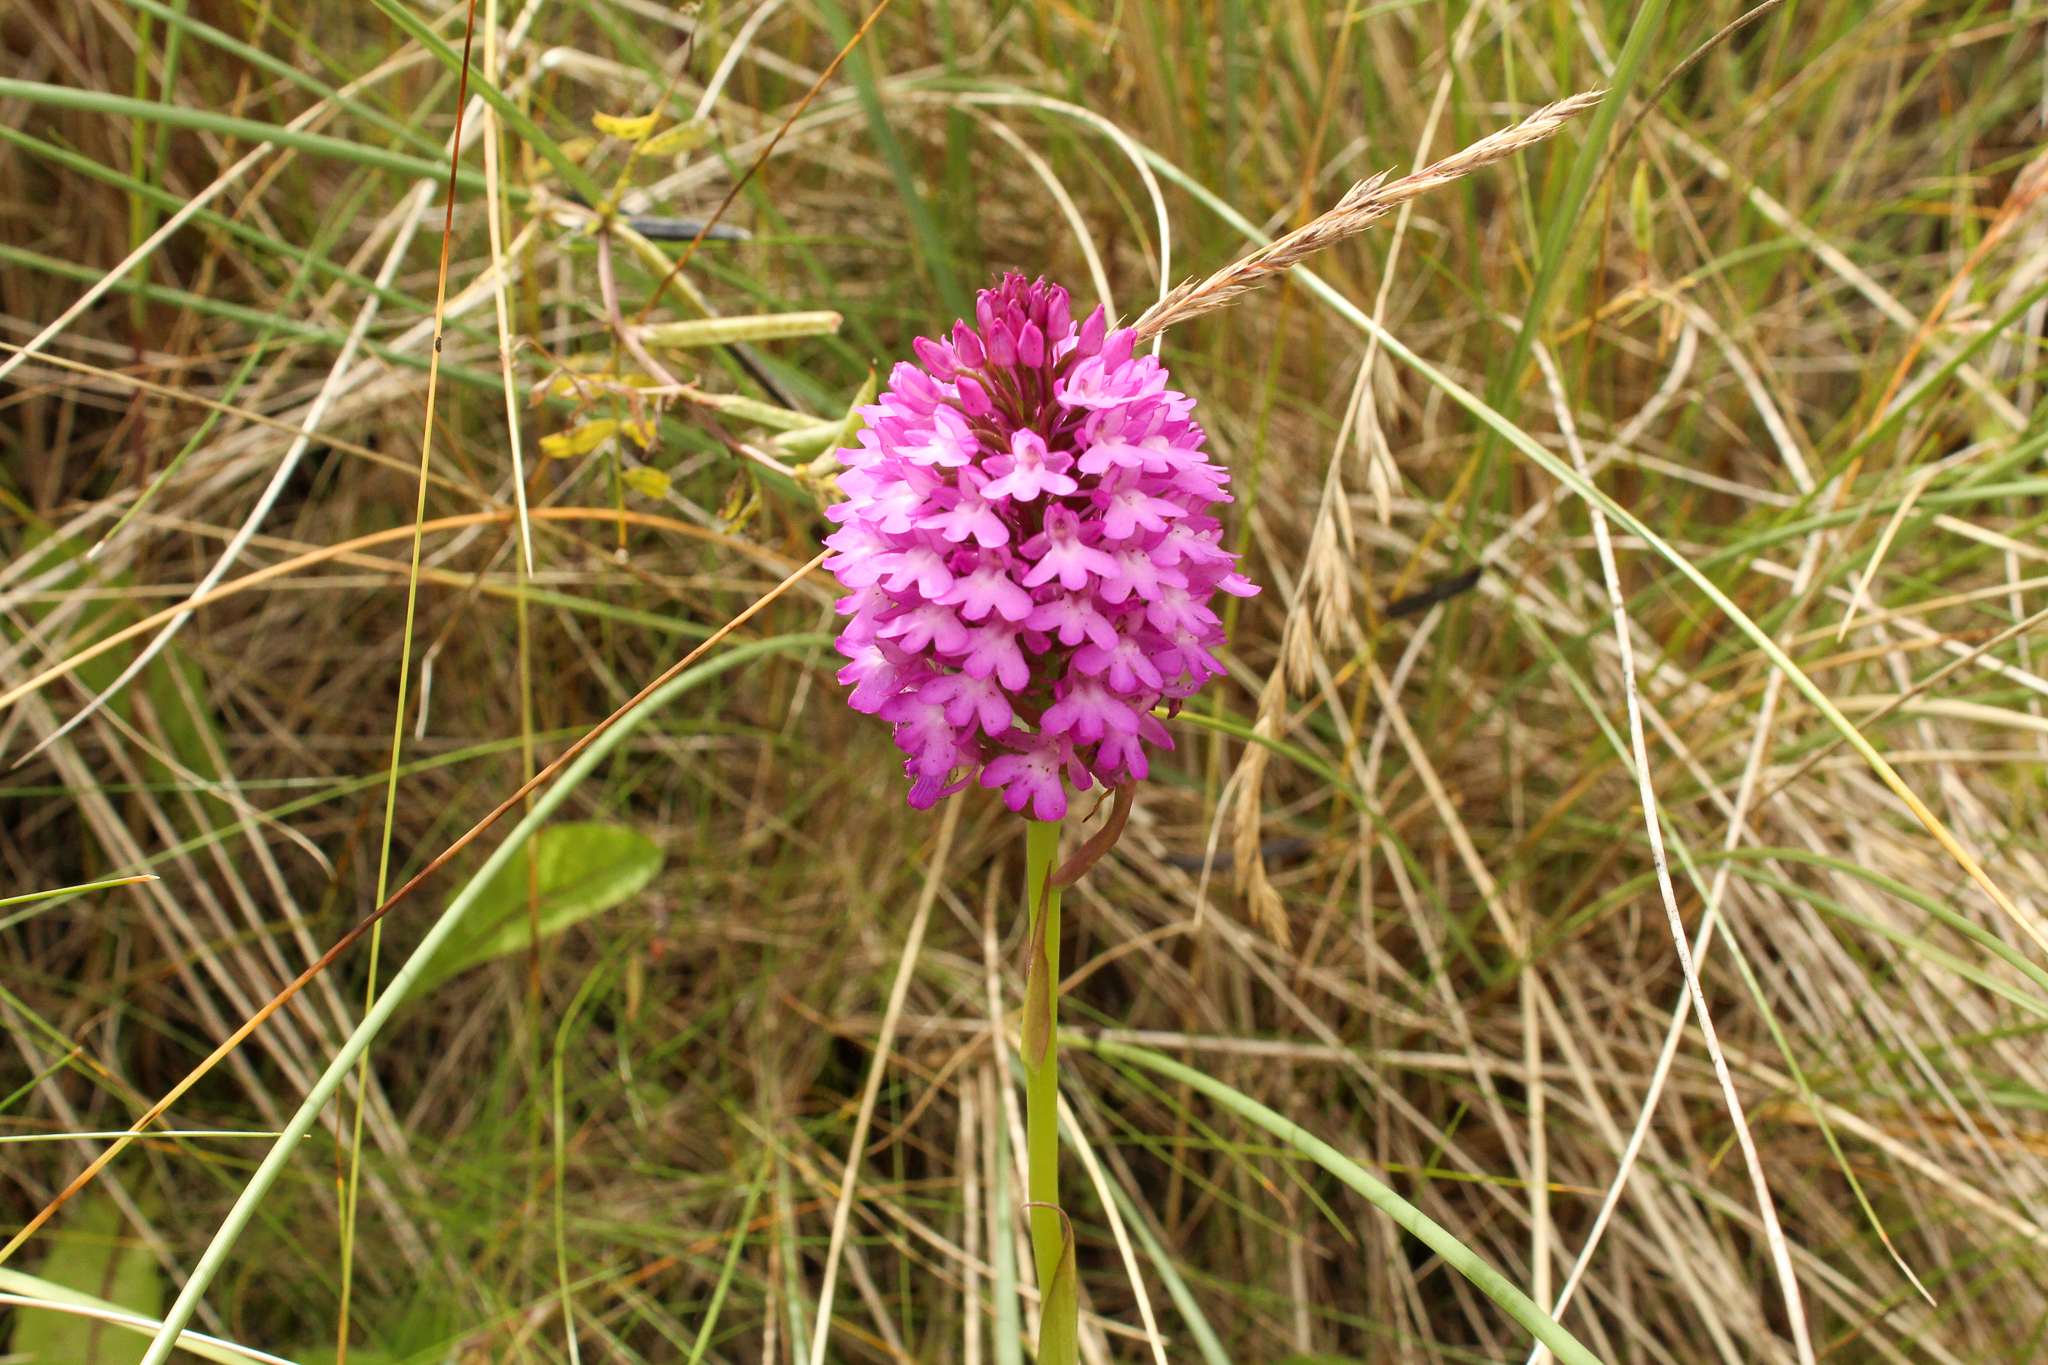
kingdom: Plantae
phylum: Tracheophyta
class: Liliopsida
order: Asparagales
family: Orchidaceae
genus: Anacamptis
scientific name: Anacamptis pyramidalis
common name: Pyramidal orchid
